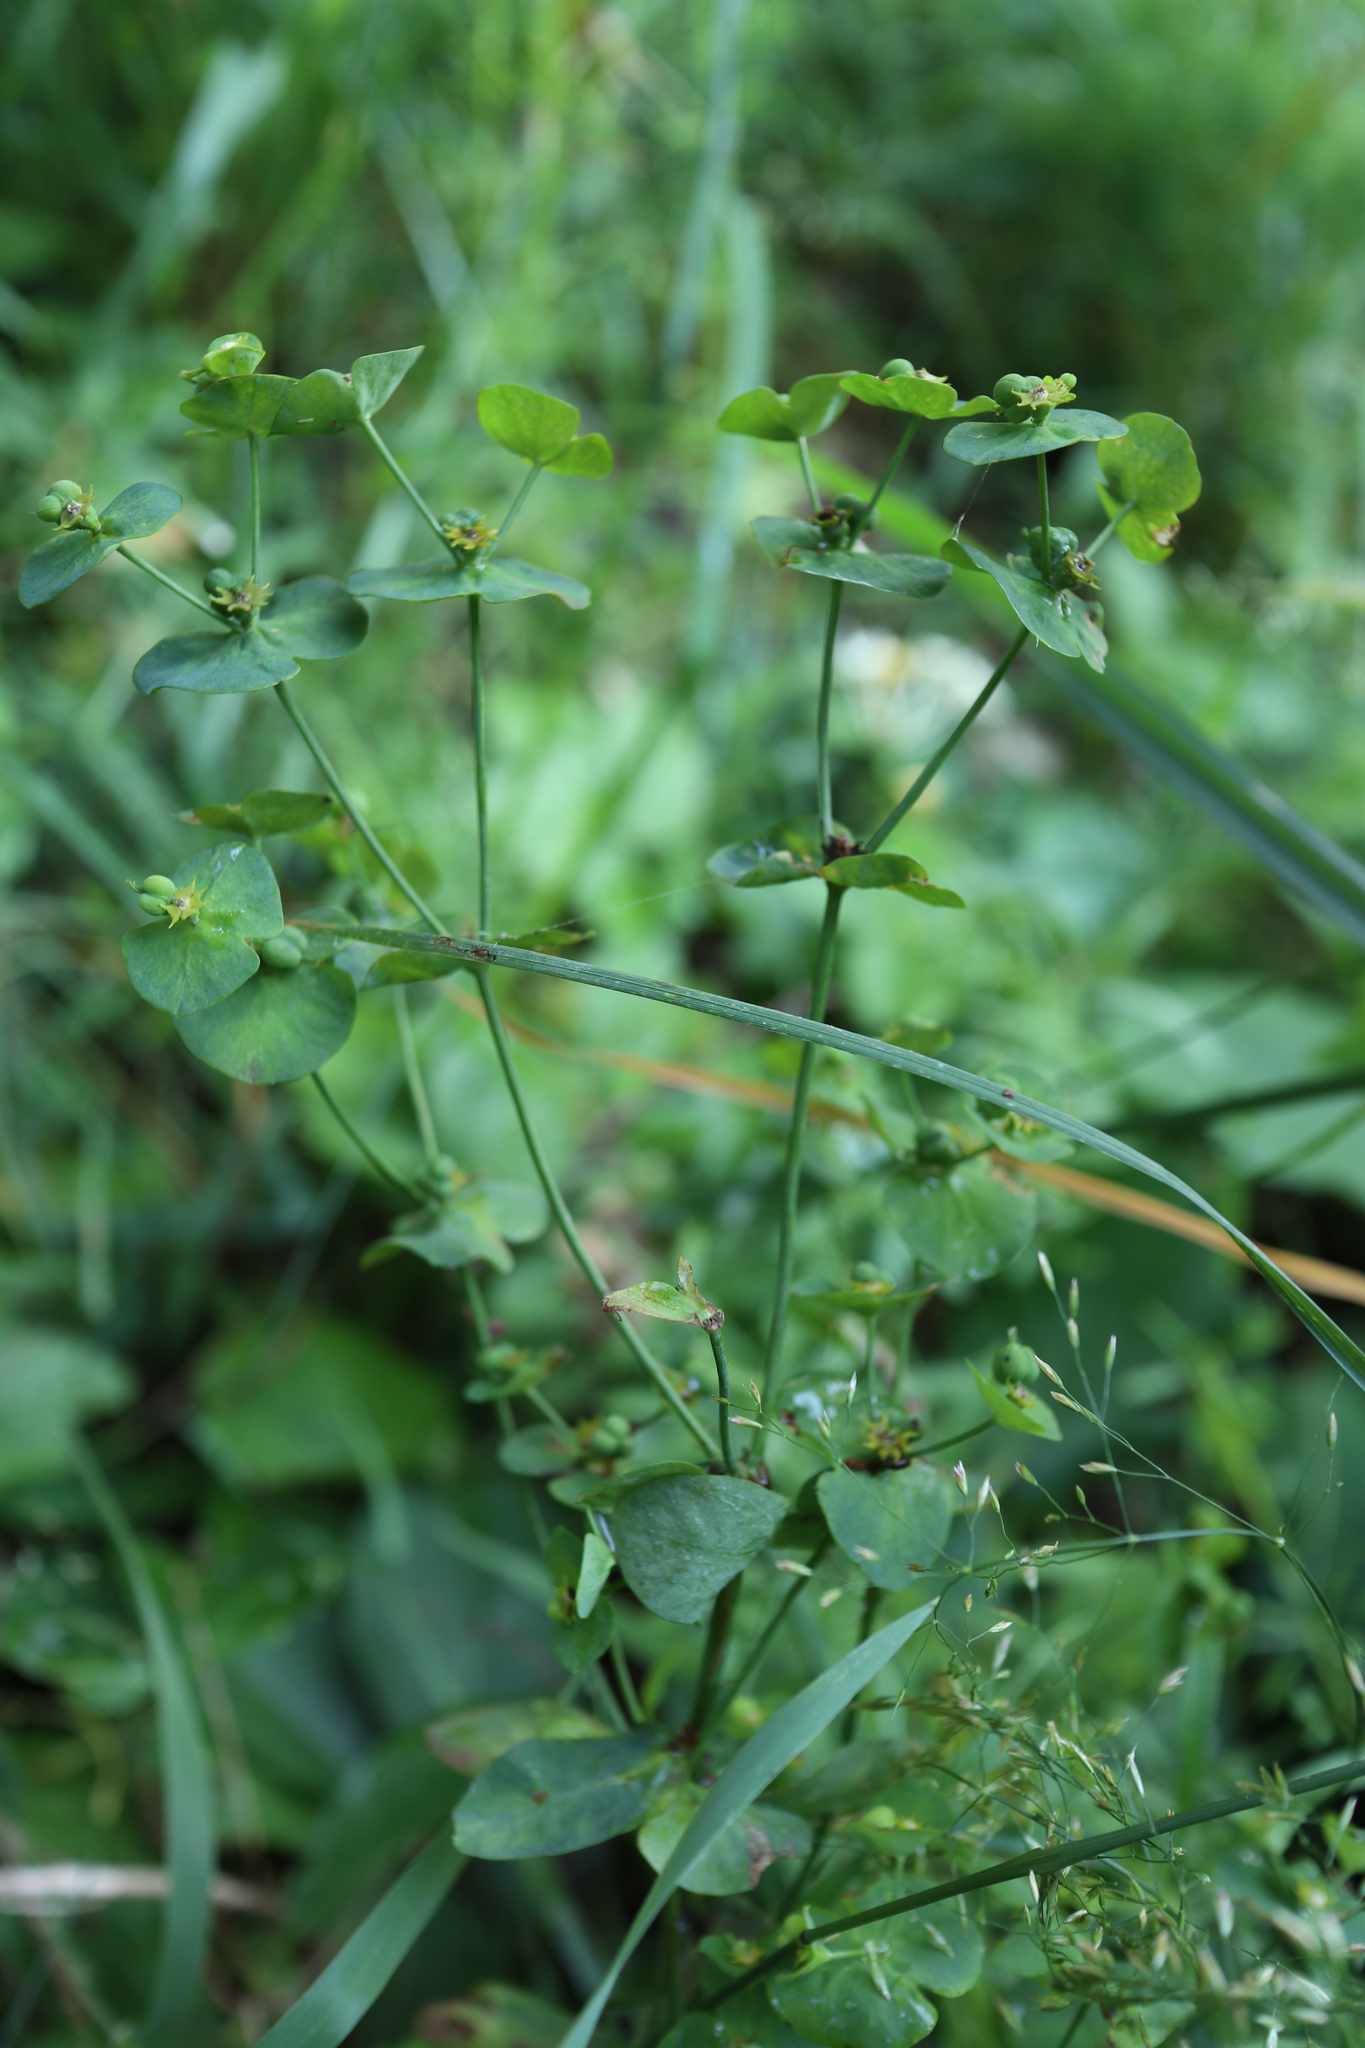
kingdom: Plantae
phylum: Tracheophyta
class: Magnoliopsida
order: Malpighiales
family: Euphorbiaceae
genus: Euphorbia
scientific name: Euphorbia amygdaloides
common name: Wood spurge
